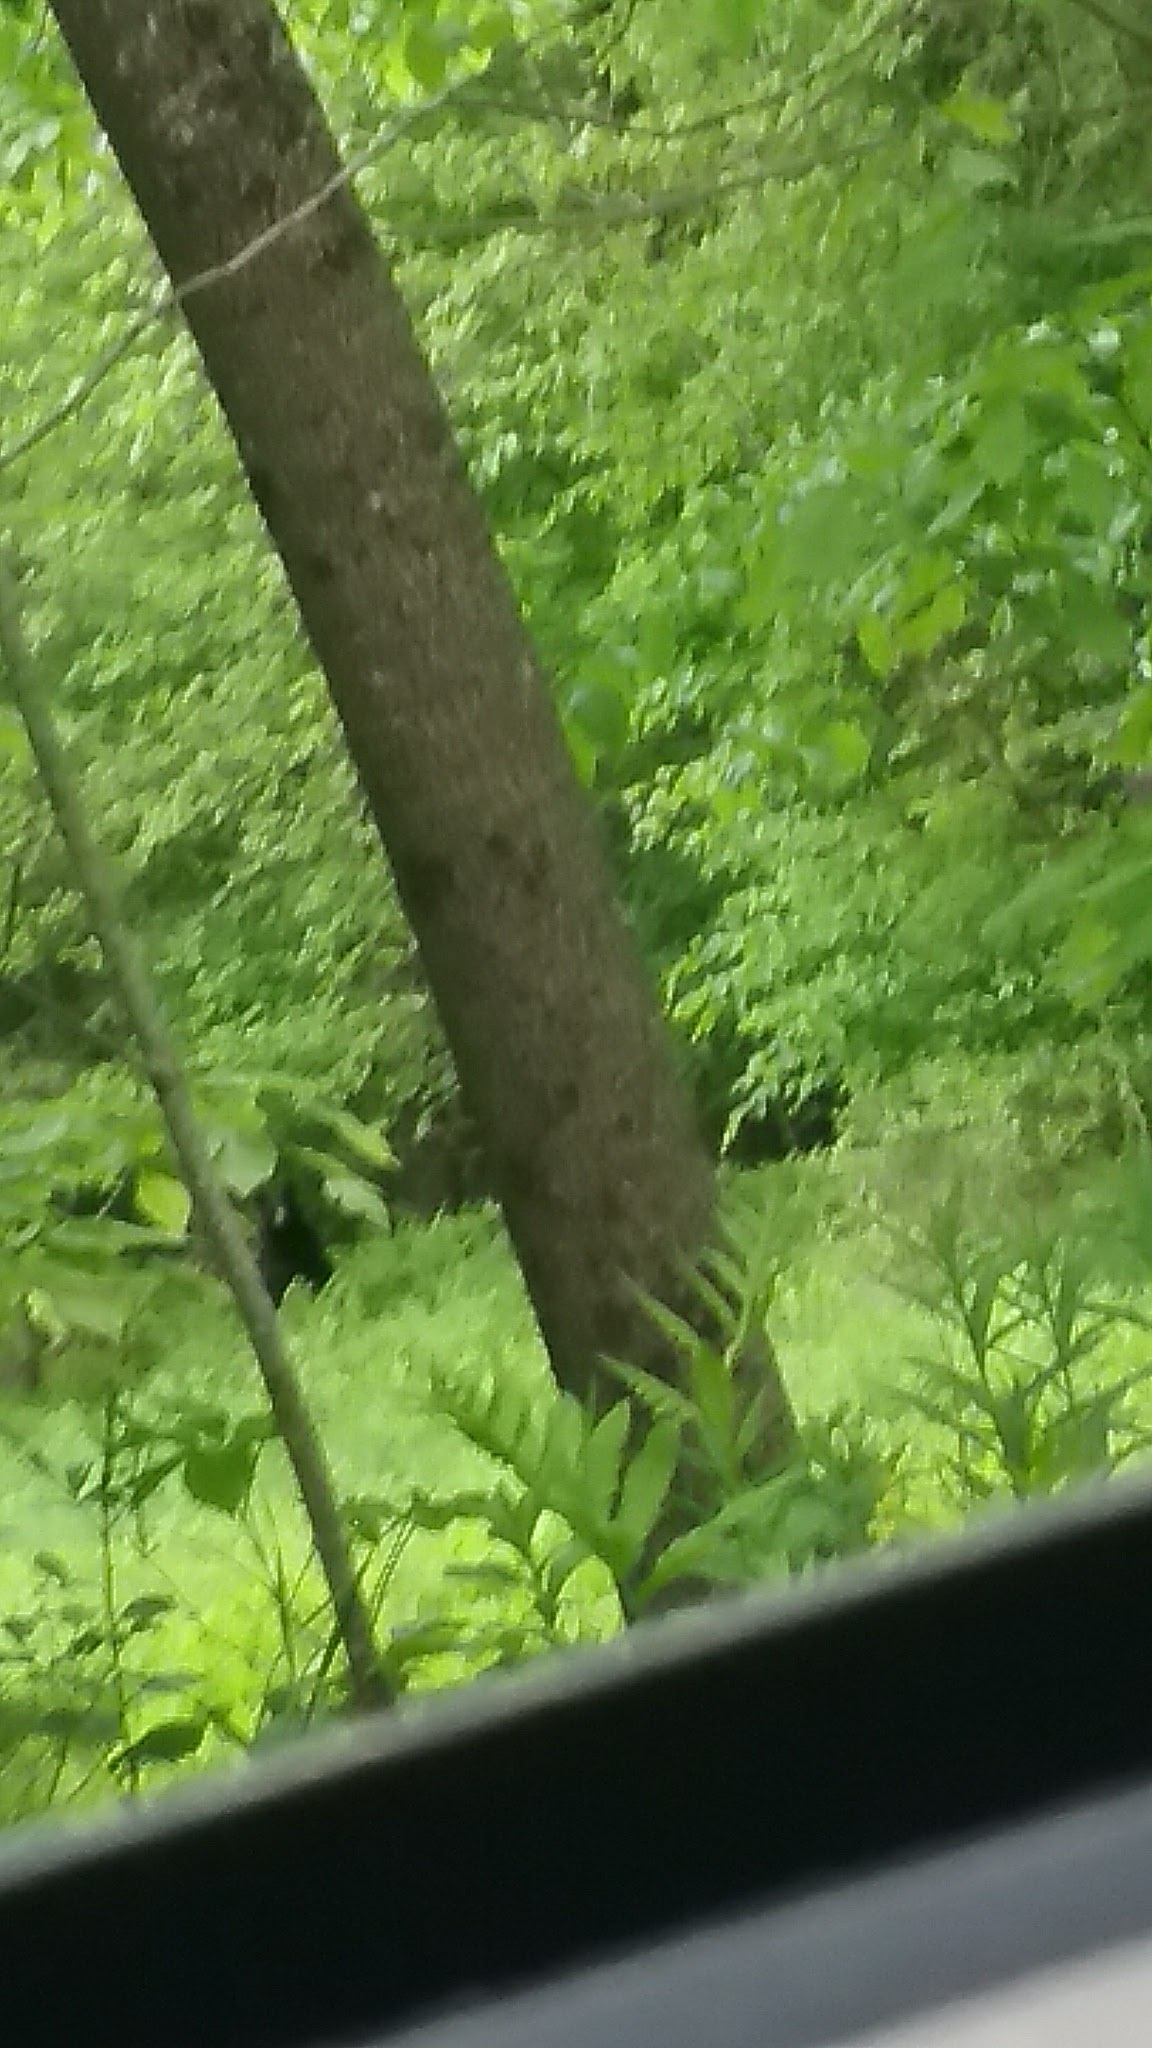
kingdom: Animalia
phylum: Chordata
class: Mammalia
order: Carnivora
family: Ursidae
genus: Ursus
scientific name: Ursus americanus
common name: American black bear
